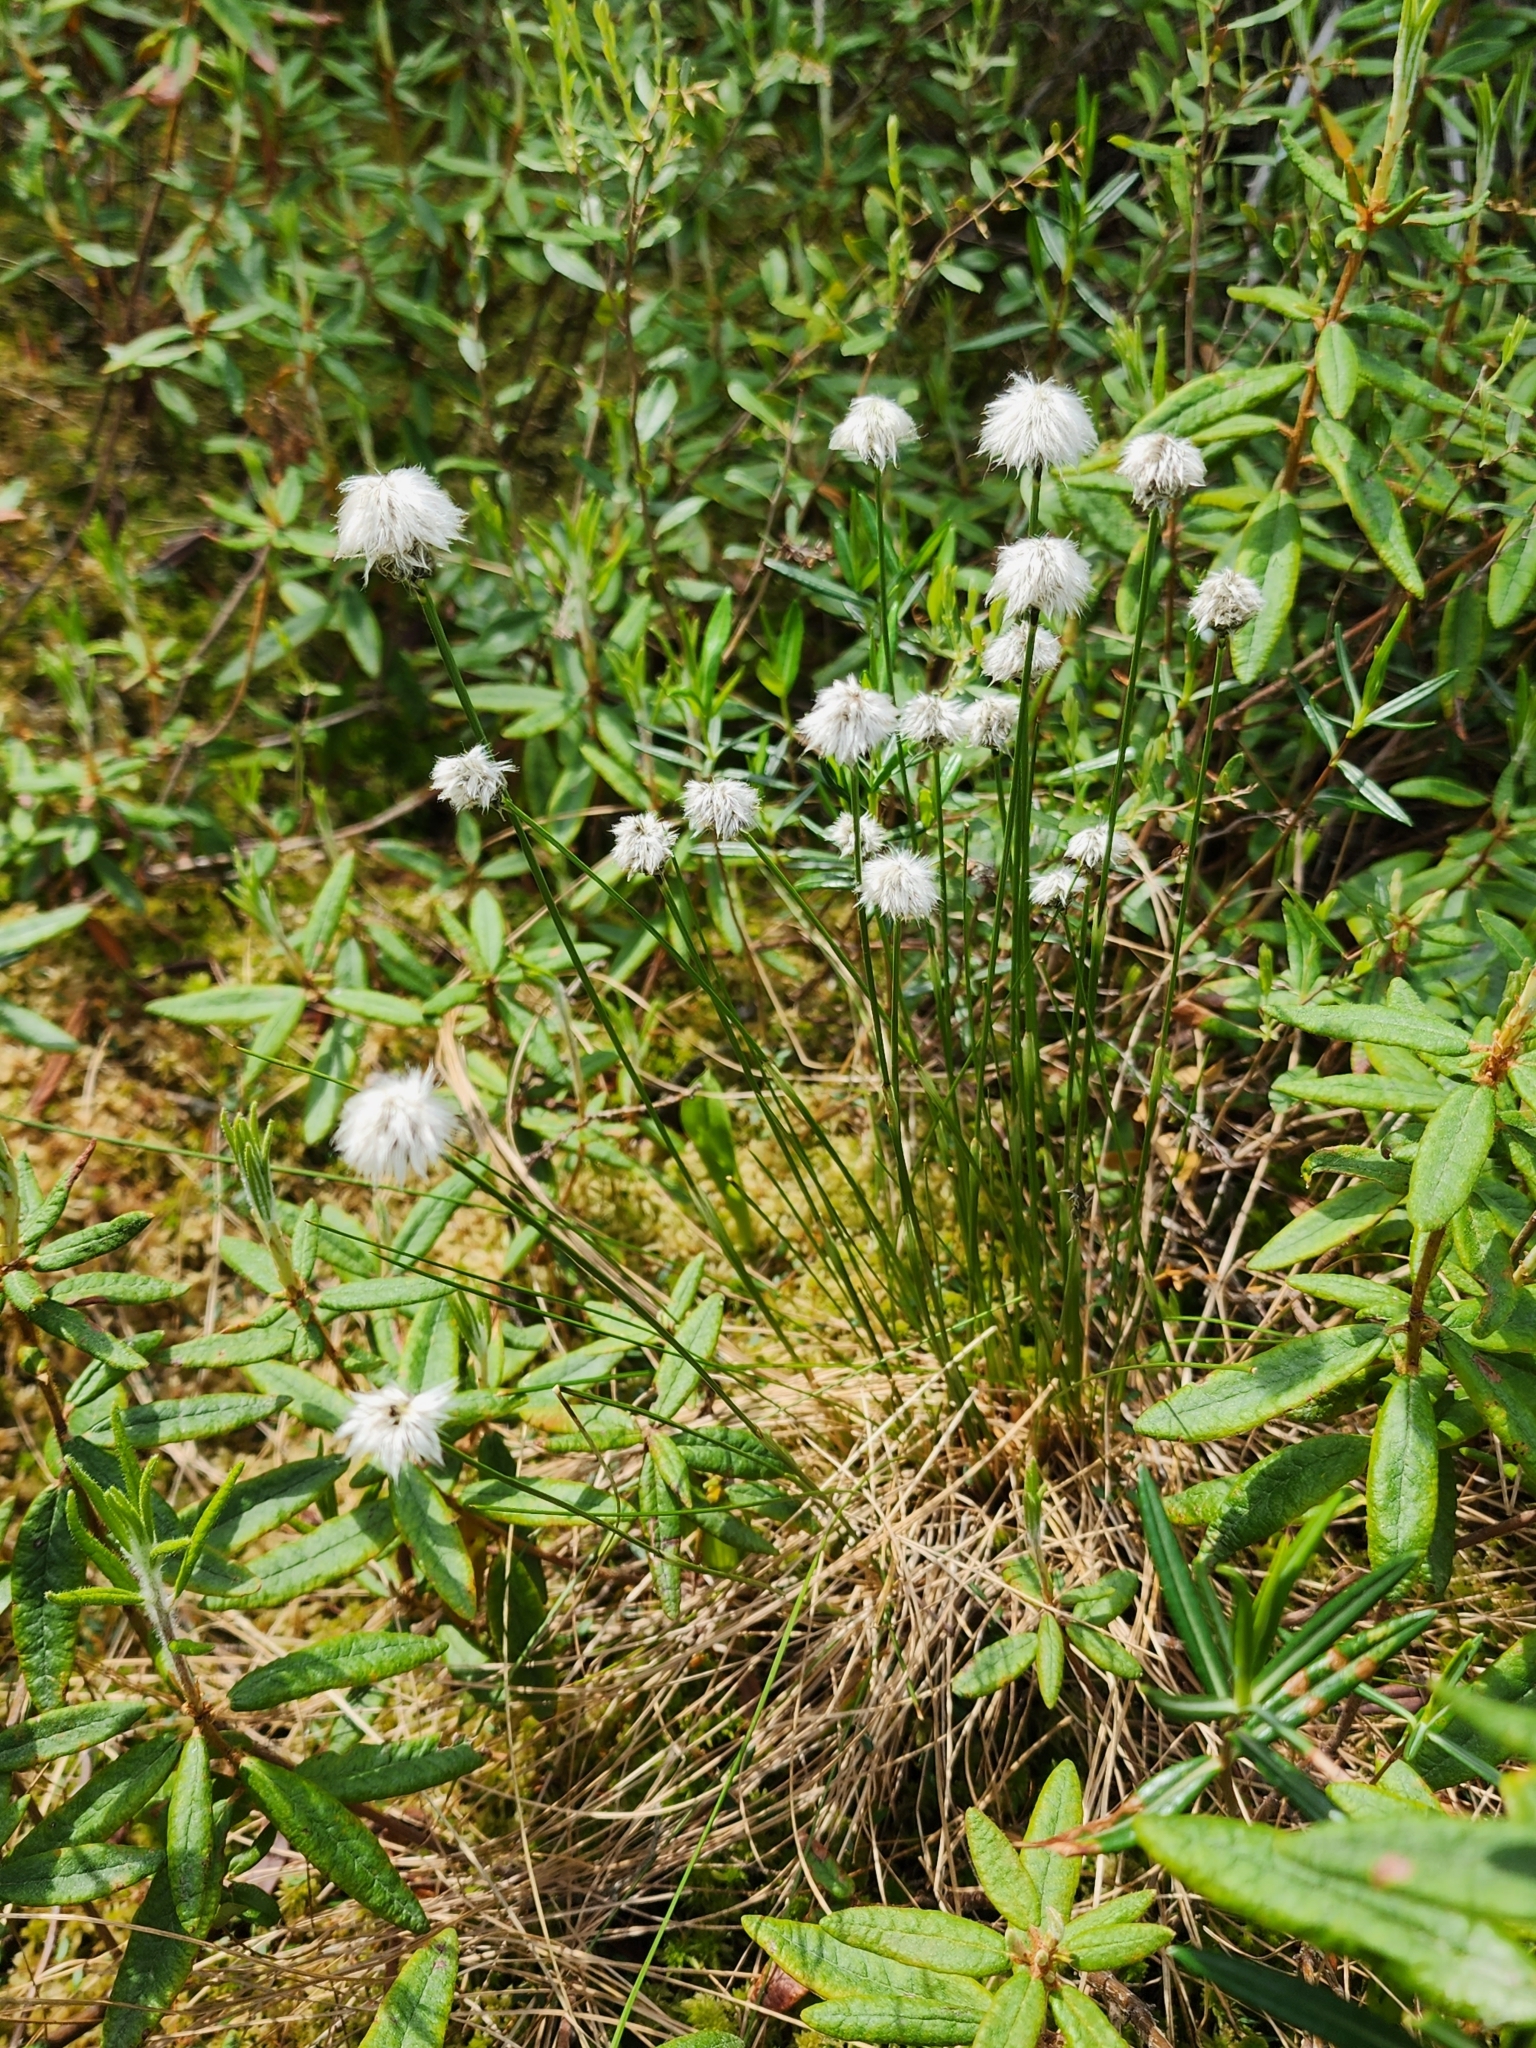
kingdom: Plantae
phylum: Tracheophyta
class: Liliopsida
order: Poales
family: Cyperaceae
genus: Eriophorum
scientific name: Eriophorum vaginatum
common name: Hare's-tail cottongrass
